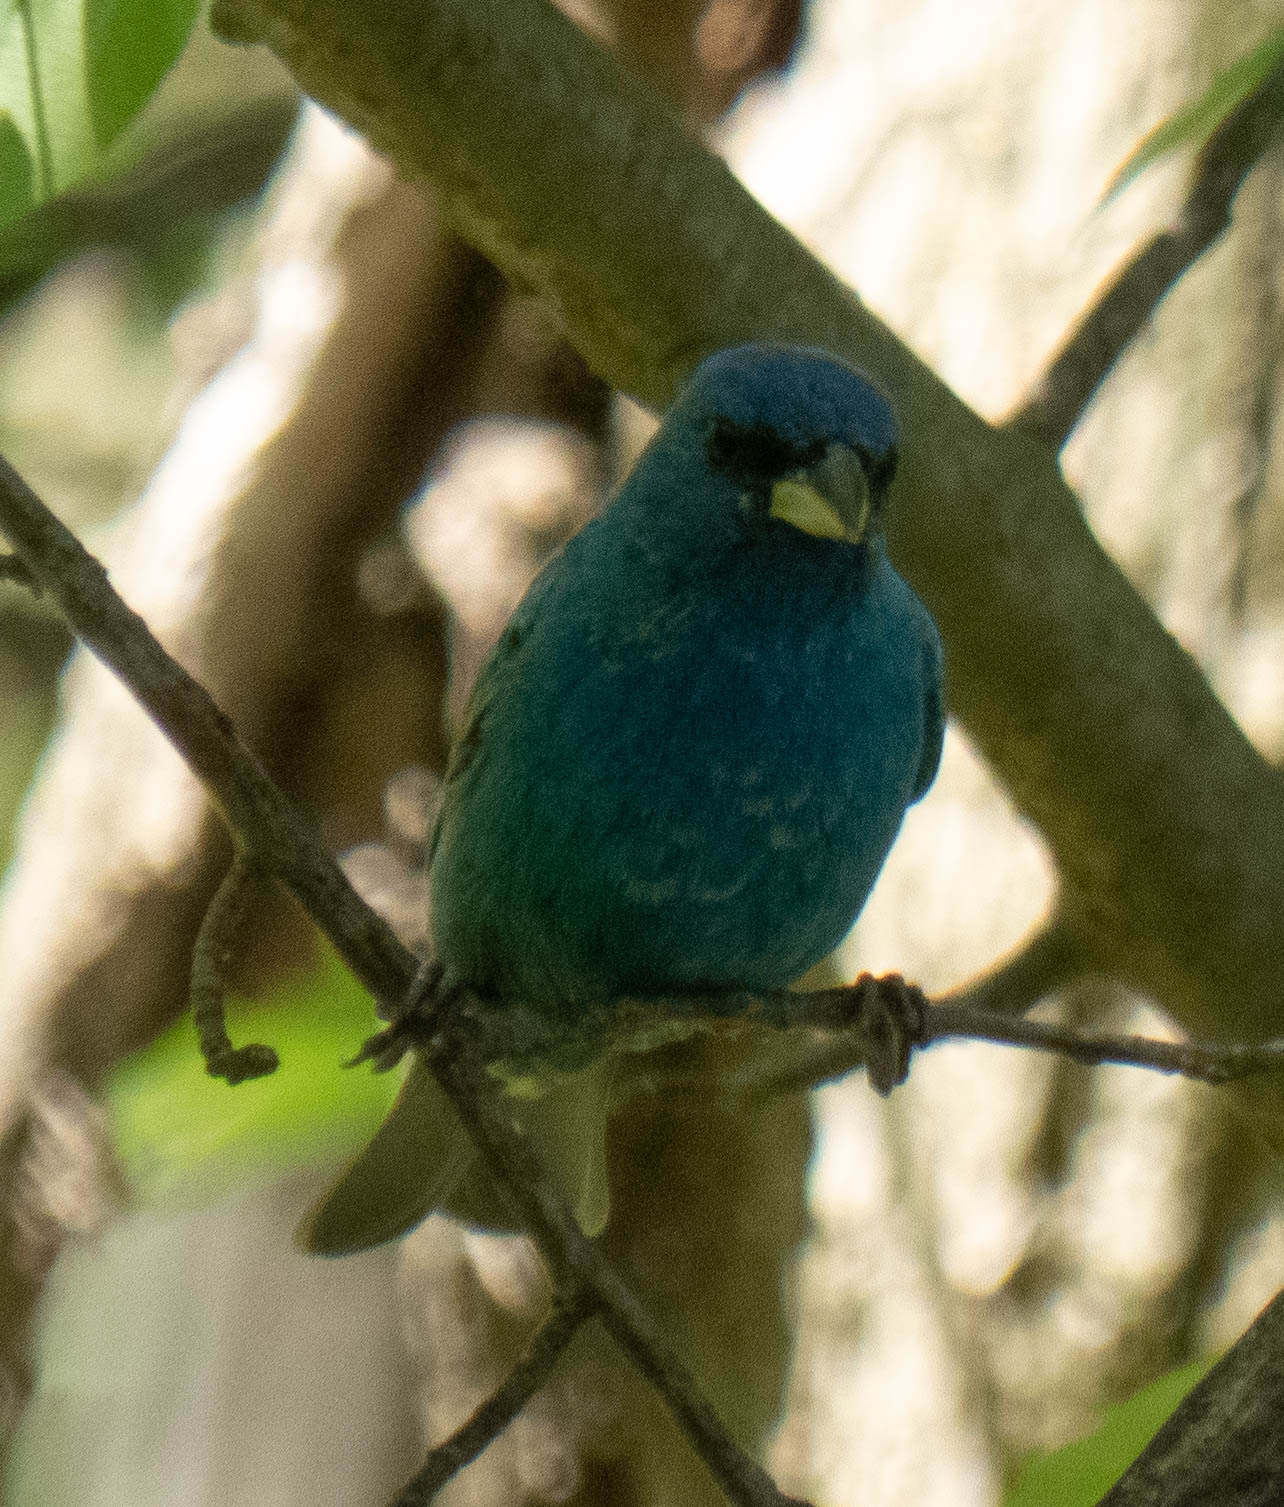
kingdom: Animalia
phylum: Chordata
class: Aves
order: Passeriformes
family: Cardinalidae
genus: Passerina
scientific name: Passerina cyanea
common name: Indigo bunting
